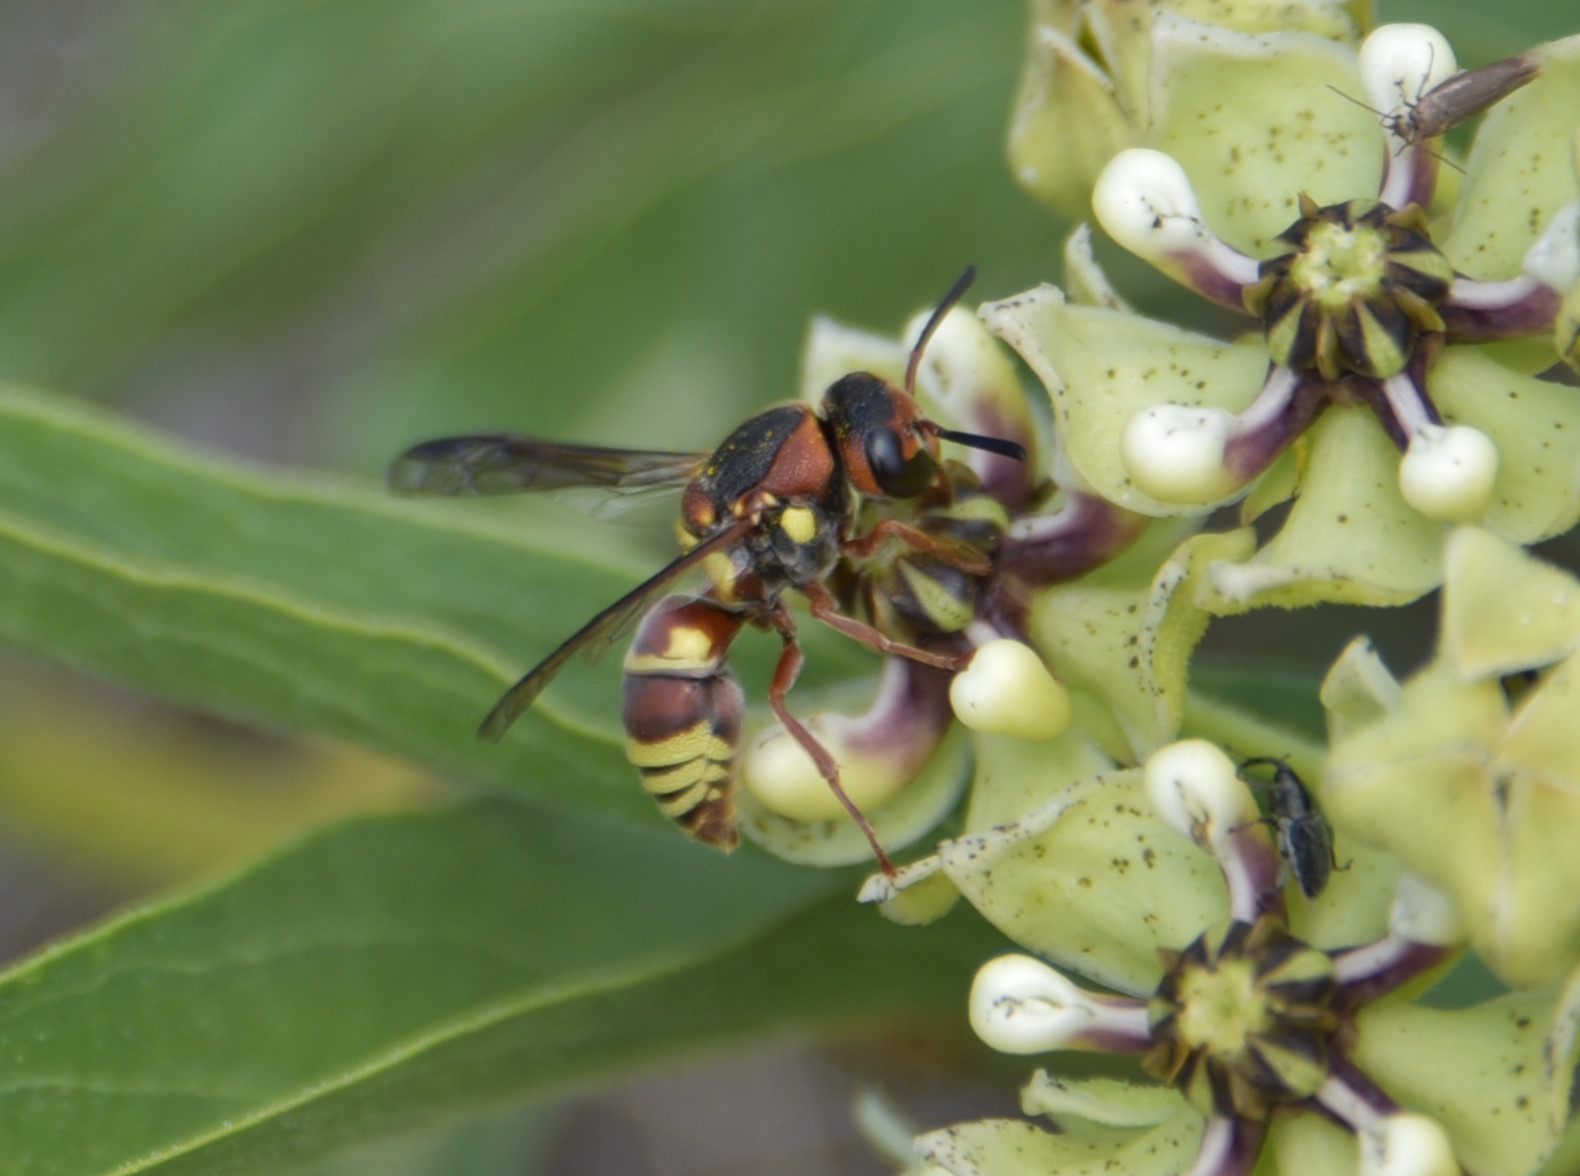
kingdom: Animalia
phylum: Arthropoda
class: Insecta
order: Hymenoptera
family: Eumenidae
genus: Euodynerus
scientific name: Euodynerus annulatus
